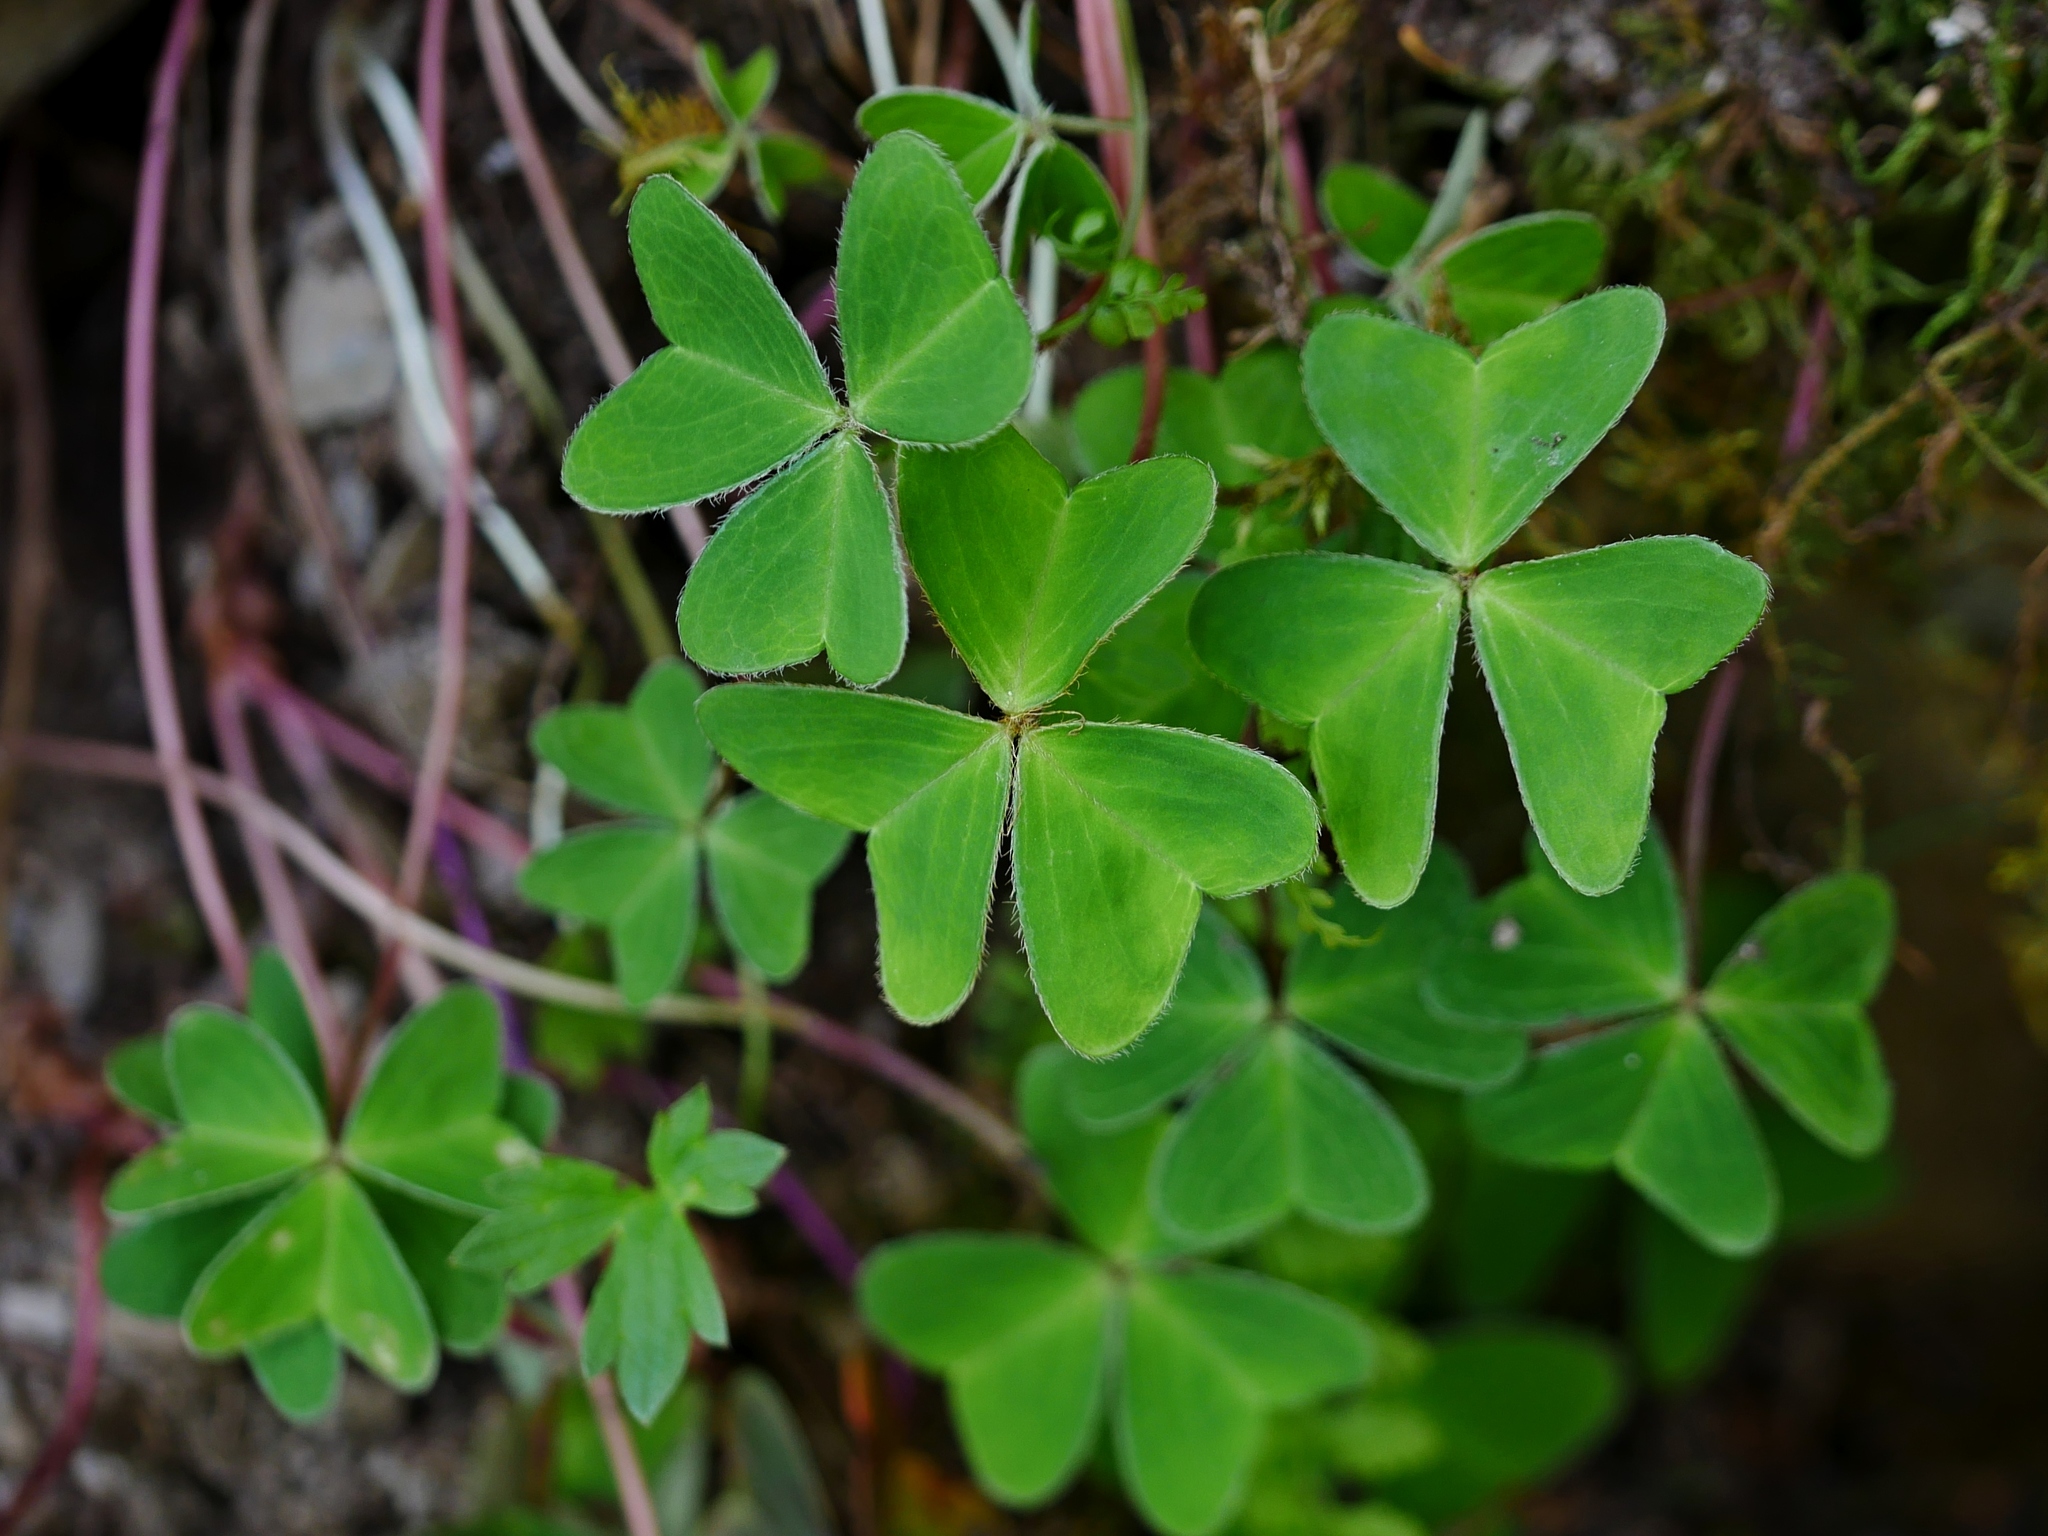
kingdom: Plantae
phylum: Tracheophyta
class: Magnoliopsida
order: Oxalidales
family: Oxalidaceae
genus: Oxalis
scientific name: Oxalis griffithii
